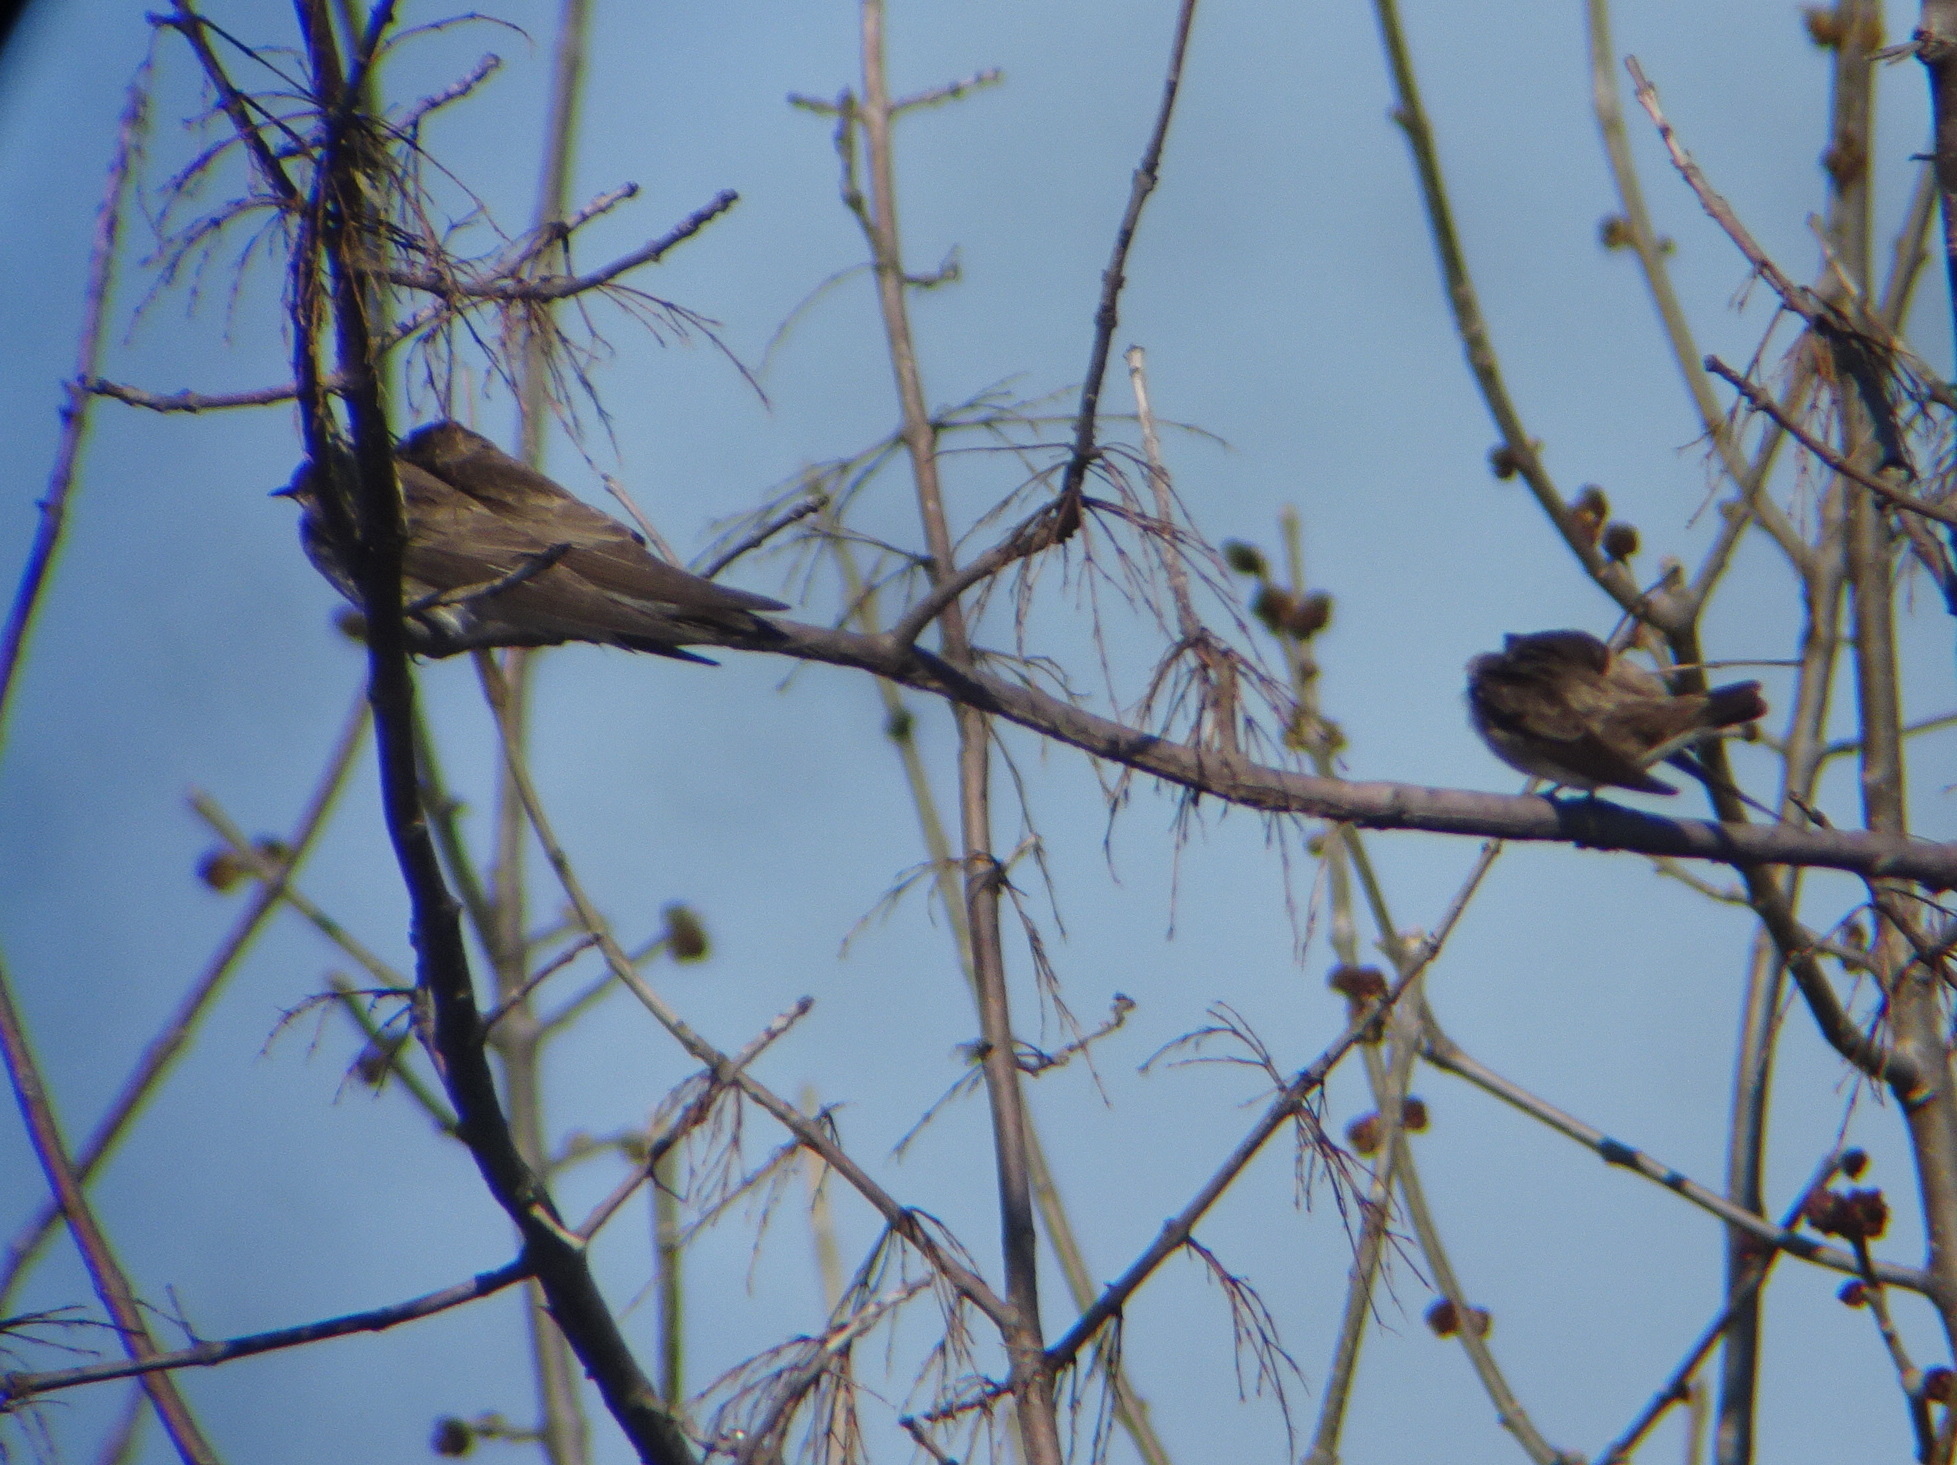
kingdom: Animalia
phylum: Chordata
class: Aves
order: Passeriformes
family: Hirundinidae
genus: Stelgidopteryx
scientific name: Stelgidopteryx serripennis
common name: Northern rough-winged swallow
